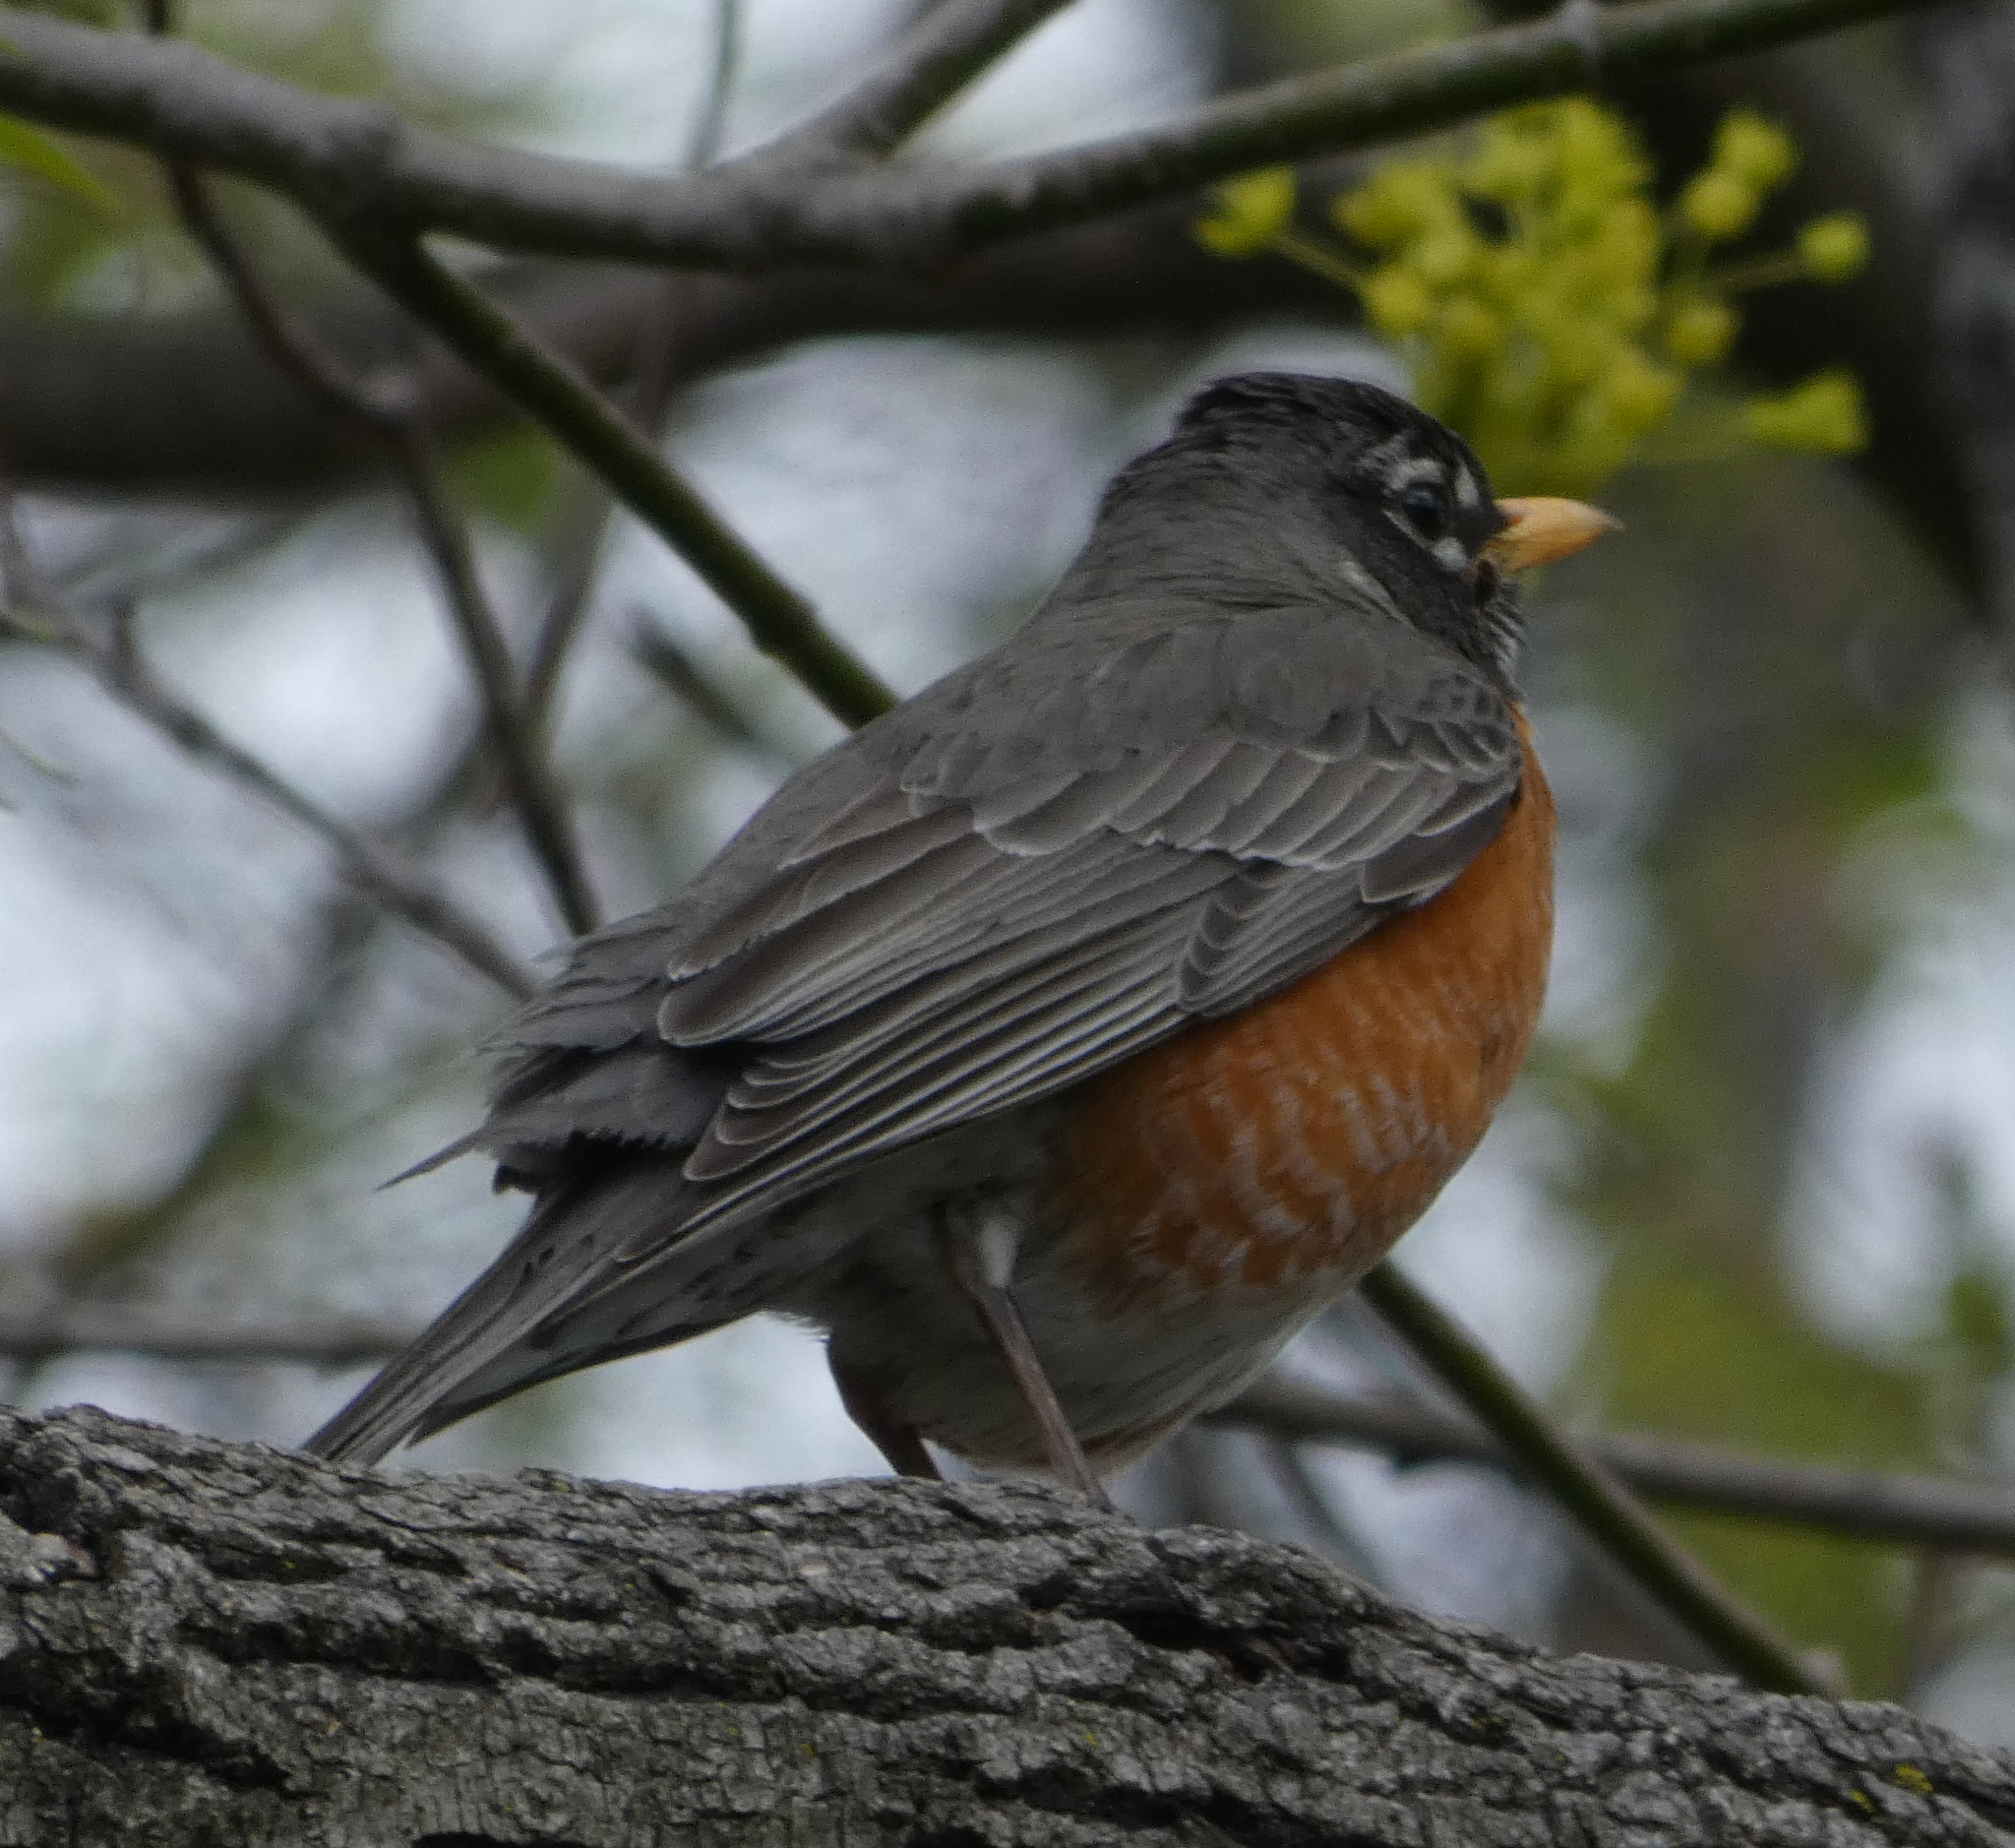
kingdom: Animalia
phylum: Chordata
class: Aves
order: Passeriformes
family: Turdidae
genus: Turdus
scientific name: Turdus migratorius
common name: American robin
